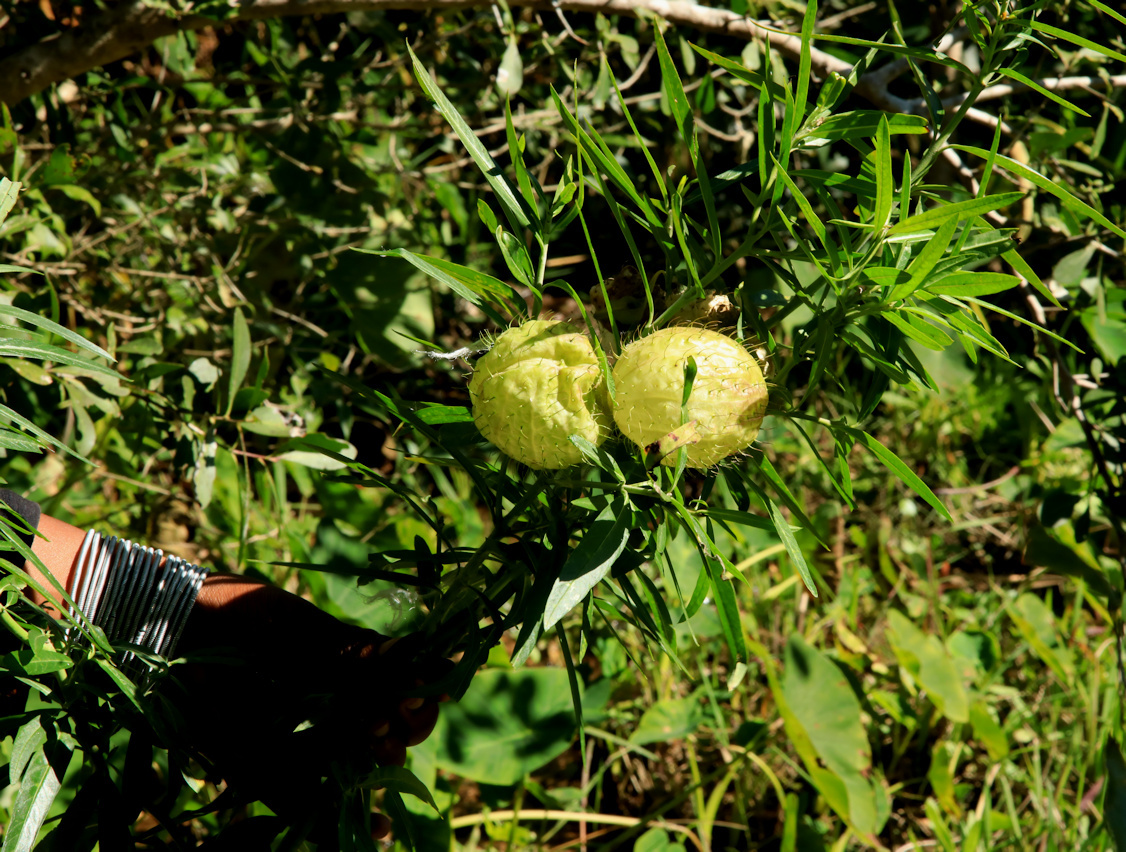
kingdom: Plantae
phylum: Tracheophyta
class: Magnoliopsida
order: Gentianales
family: Apocynaceae
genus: Gomphocarpus
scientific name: Gomphocarpus physocarpus
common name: Balloon cotton bush
